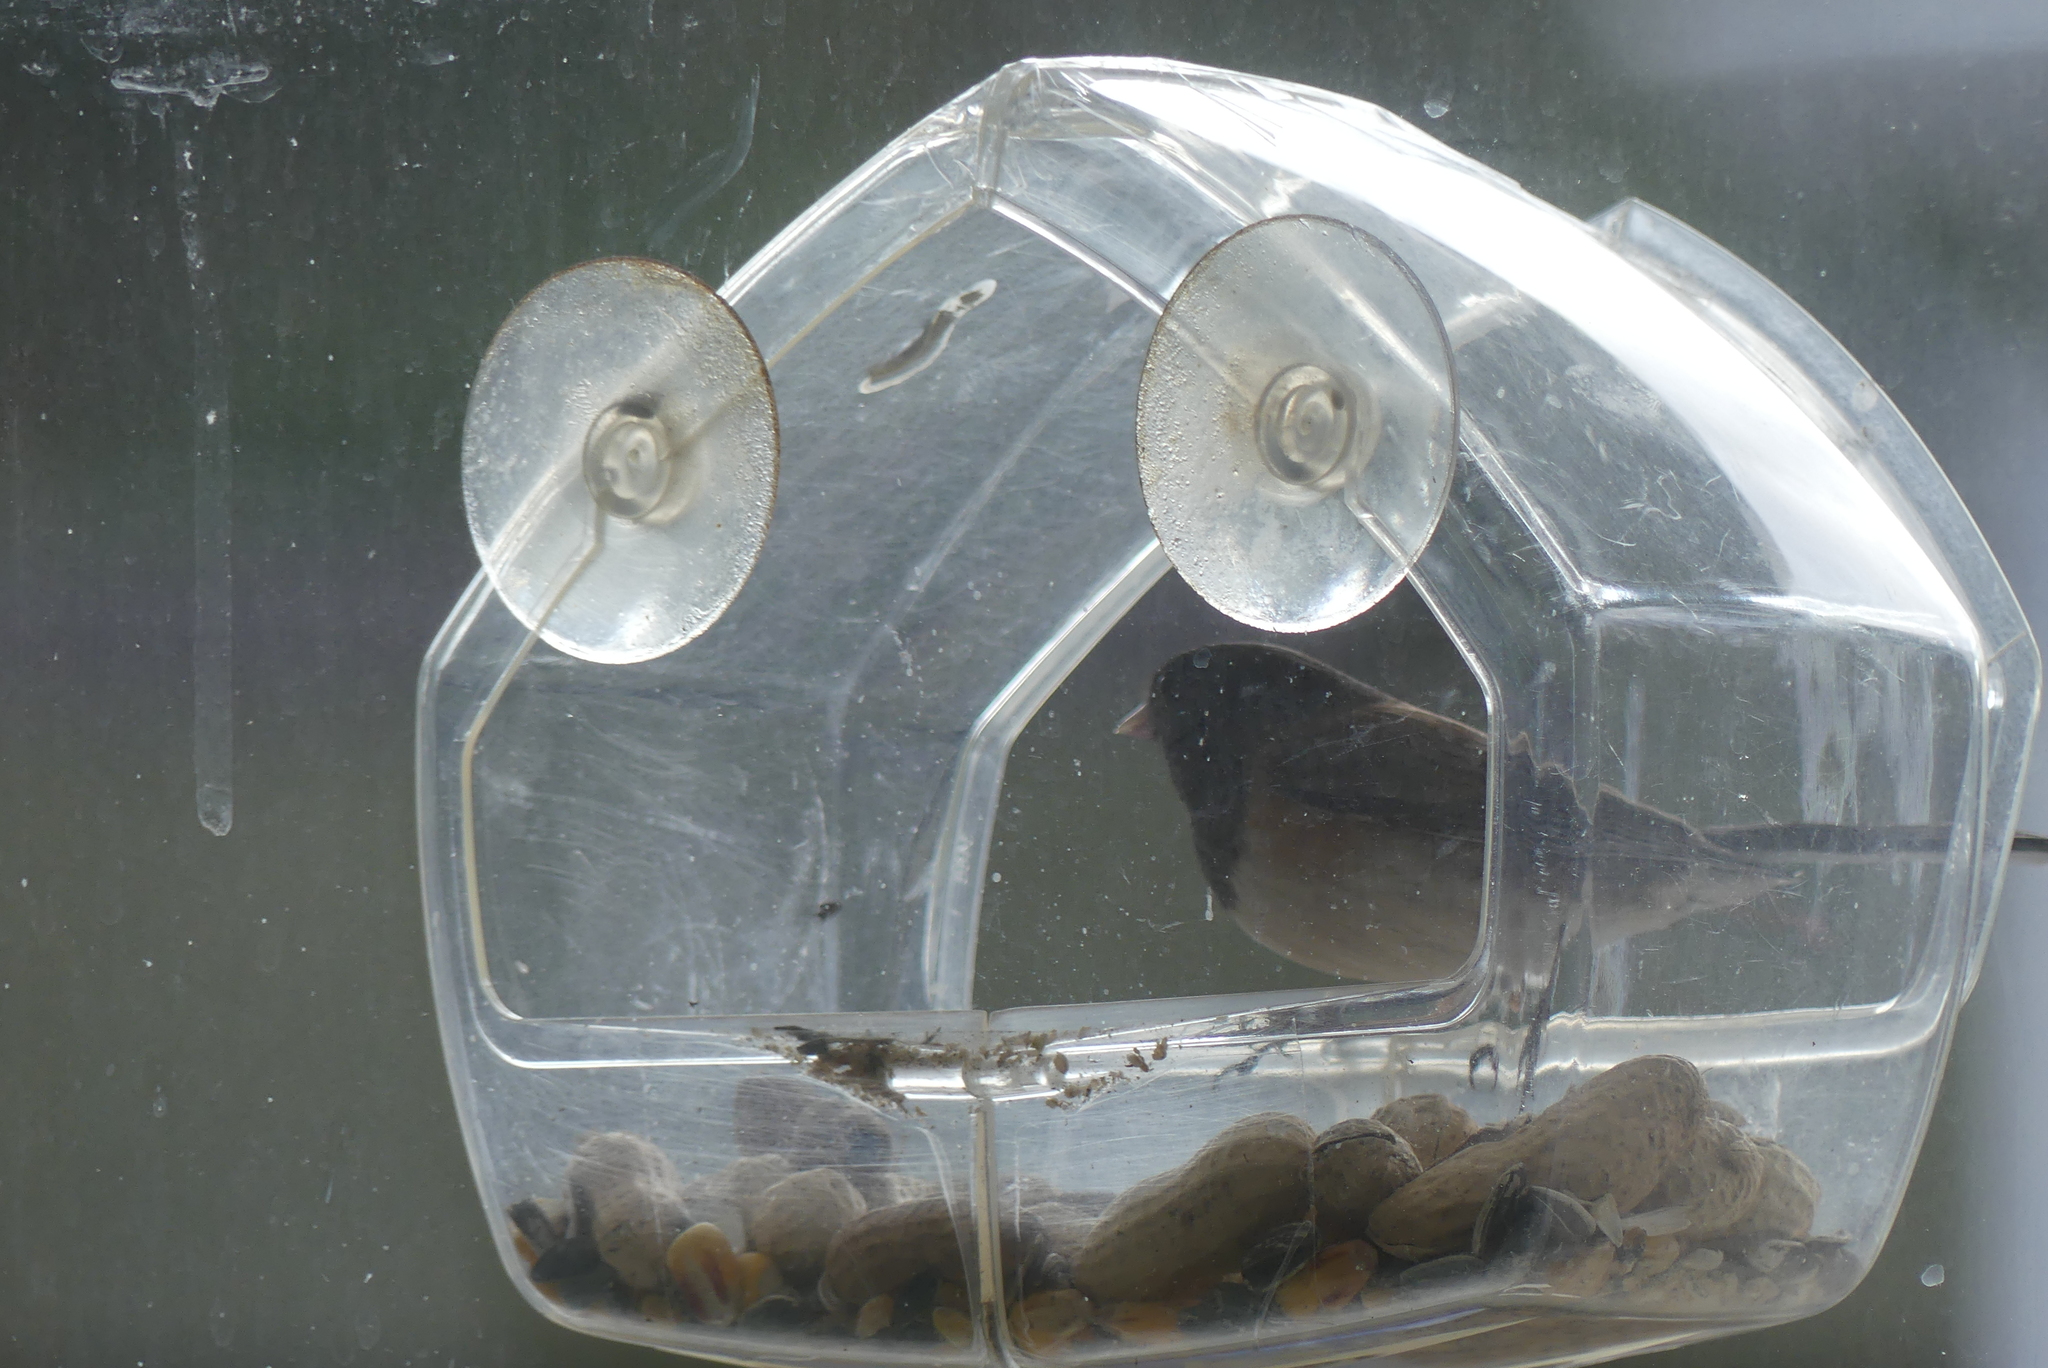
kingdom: Animalia
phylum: Chordata
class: Aves
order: Passeriformes
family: Passerellidae
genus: Junco
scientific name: Junco hyemalis
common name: Dark-eyed junco
